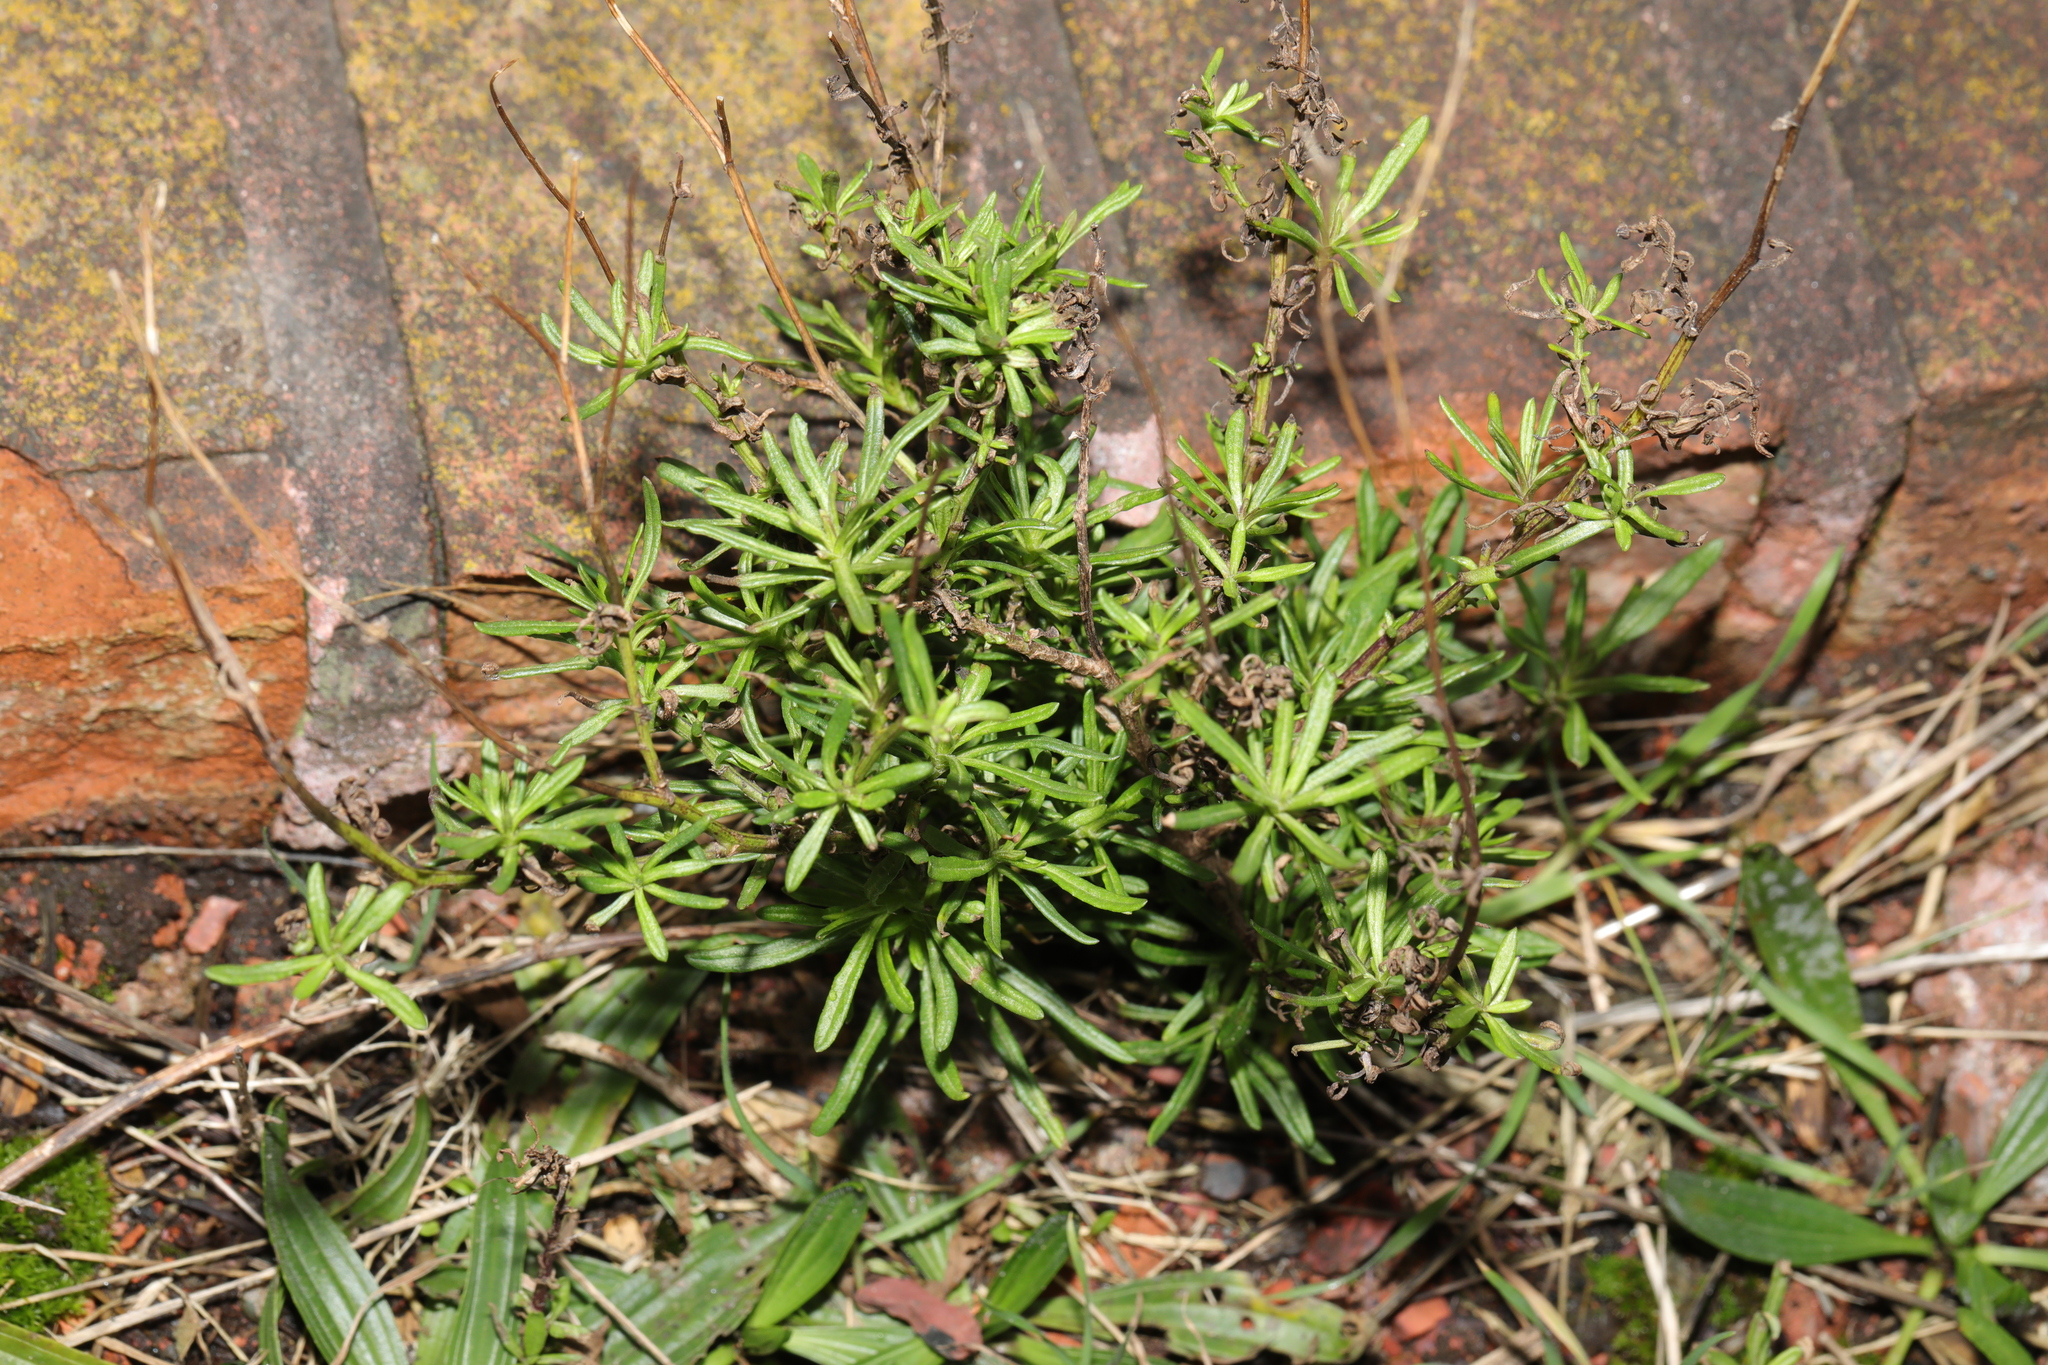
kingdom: Plantae
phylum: Tracheophyta
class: Magnoliopsida
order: Asterales
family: Asteraceae
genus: Senecio
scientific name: Senecio inaequidens
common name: Narrow-leaved ragwort
